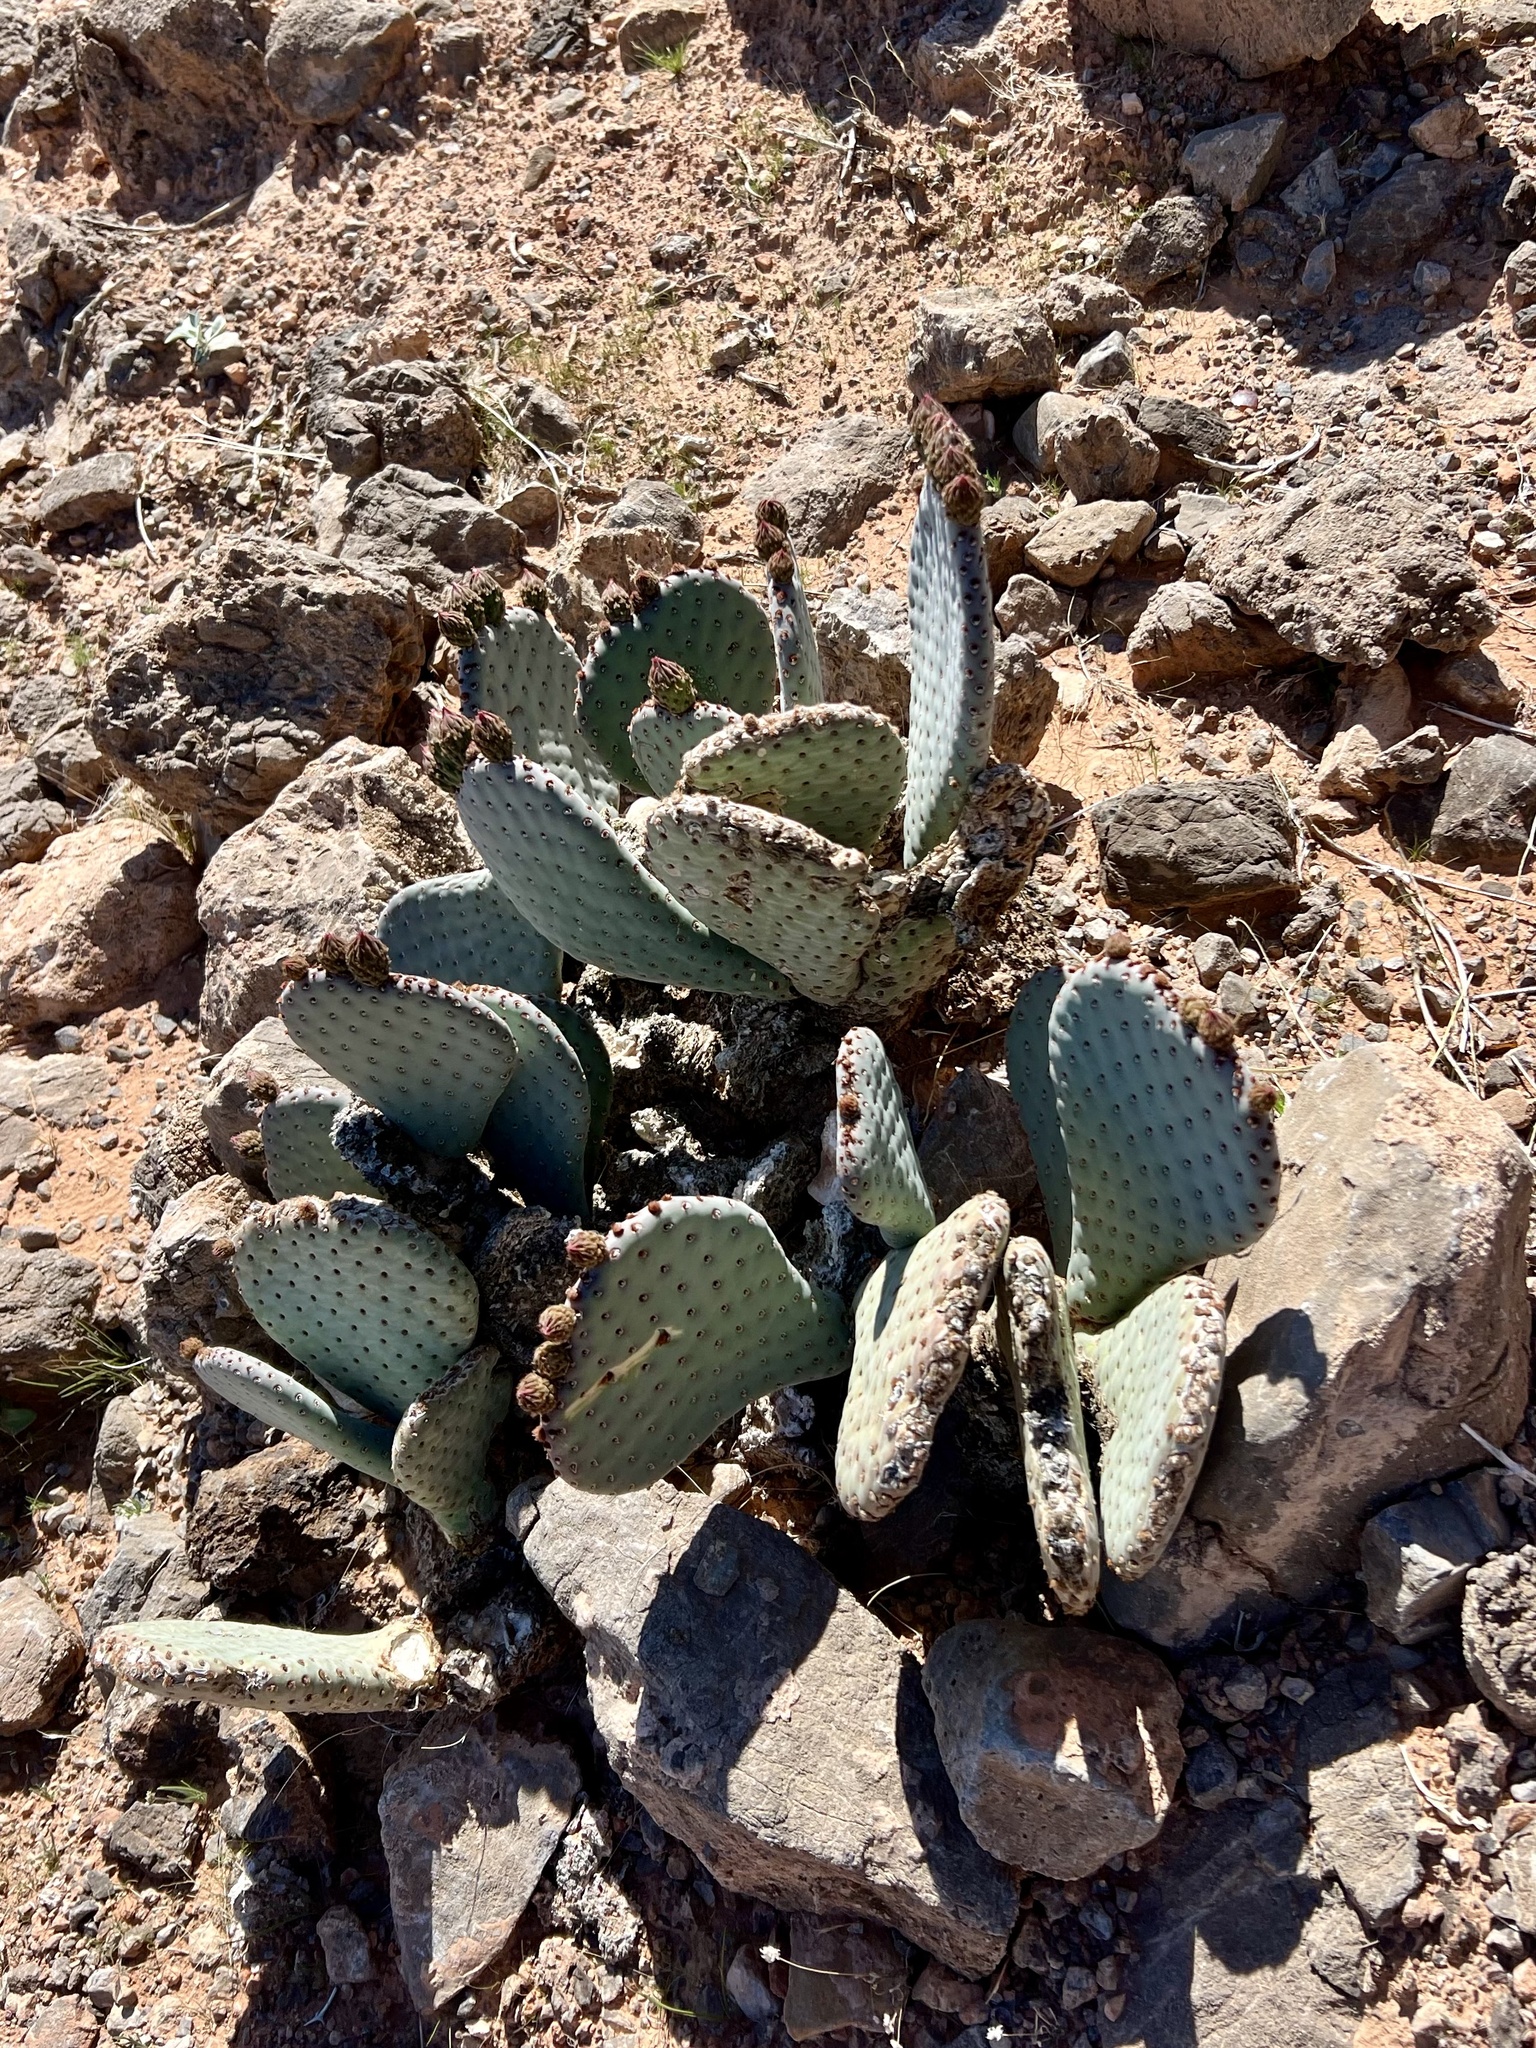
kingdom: Plantae
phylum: Tracheophyta
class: Magnoliopsida
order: Caryophyllales
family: Cactaceae
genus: Opuntia
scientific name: Opuntia basilaris
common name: Beavertail prickly-pear
